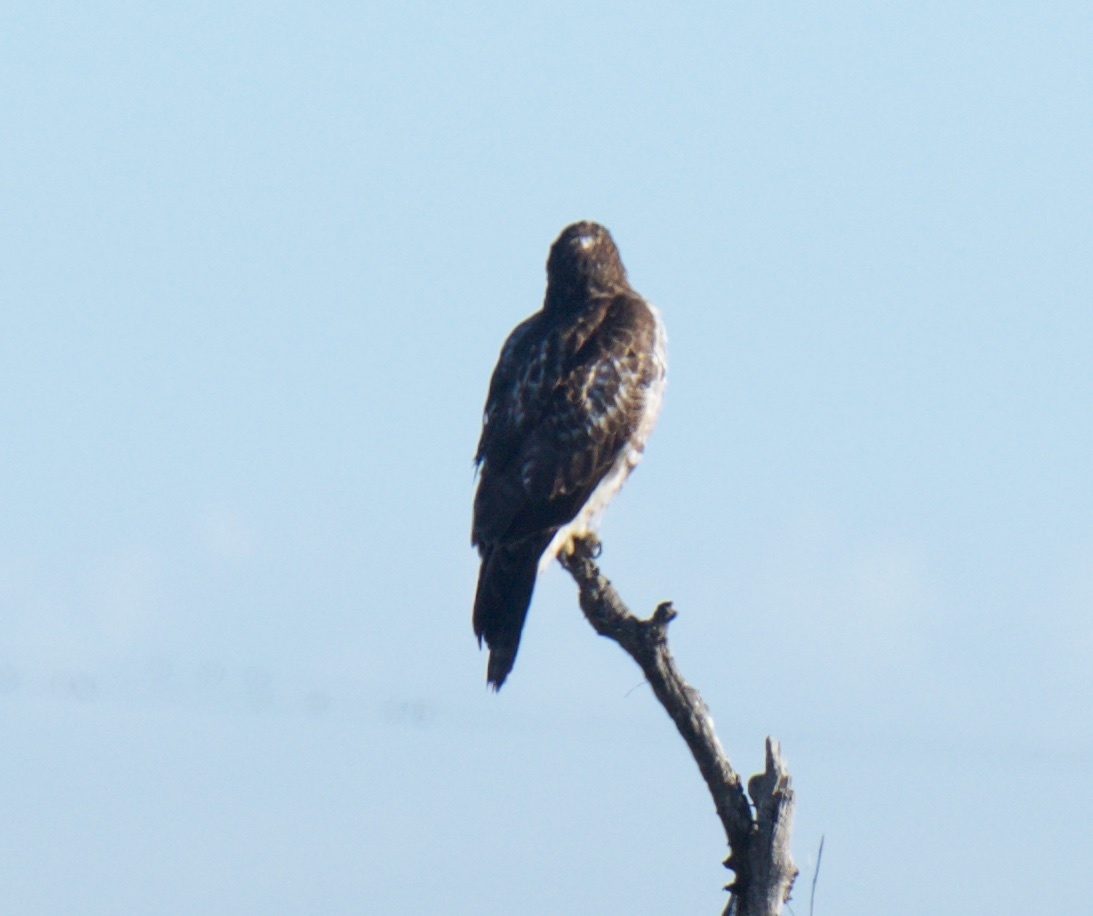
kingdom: Animalia
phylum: Chordata
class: Aves
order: Accipitriformes
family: Accipitridae
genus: Buteo
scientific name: Buteo jamaicensis
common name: Red-tailed hawk
